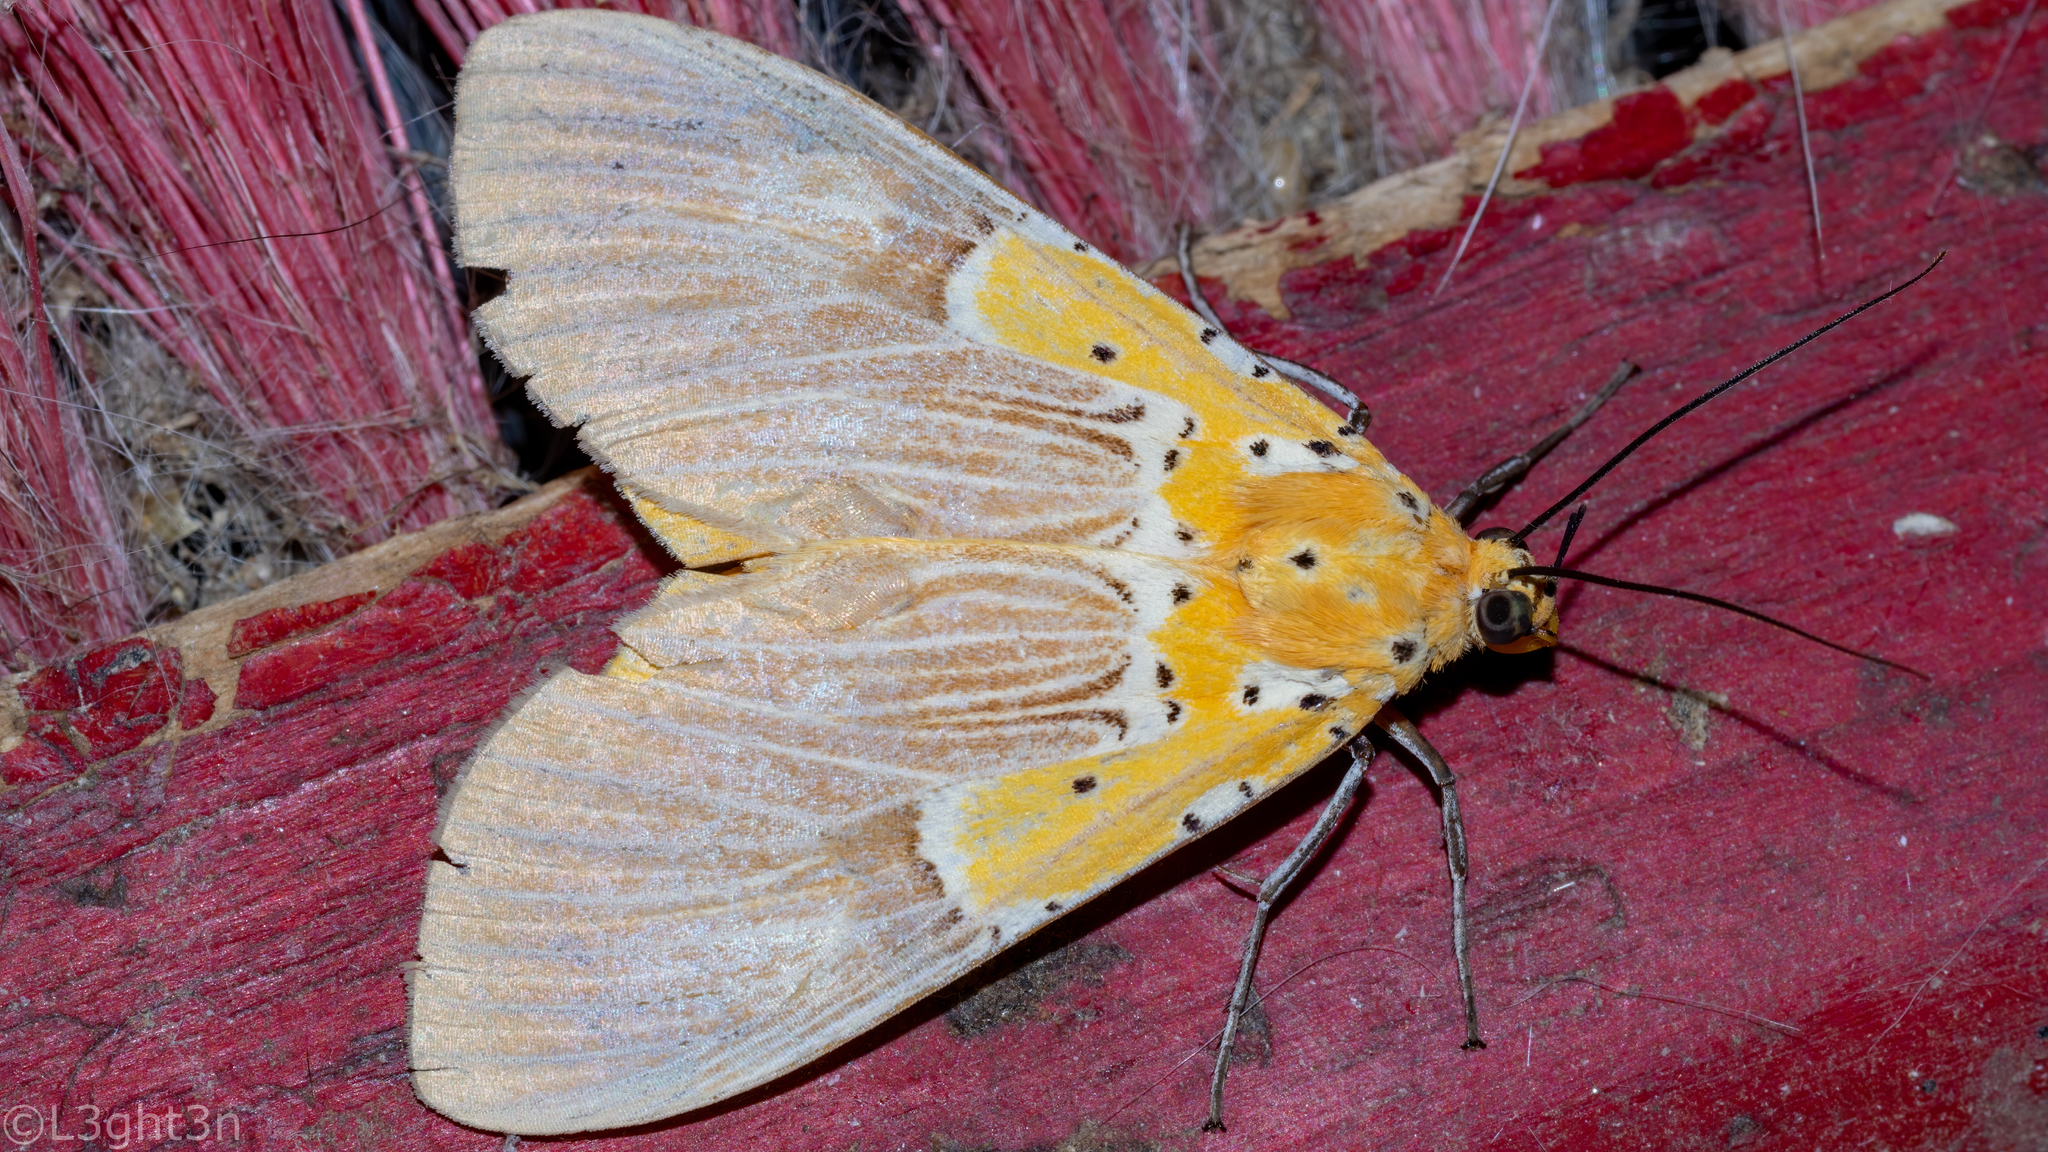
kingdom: Animalia
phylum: Arthropoda
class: Insecta
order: Lepidoptera
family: Erebidae
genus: Asota
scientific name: Asota speciosa
